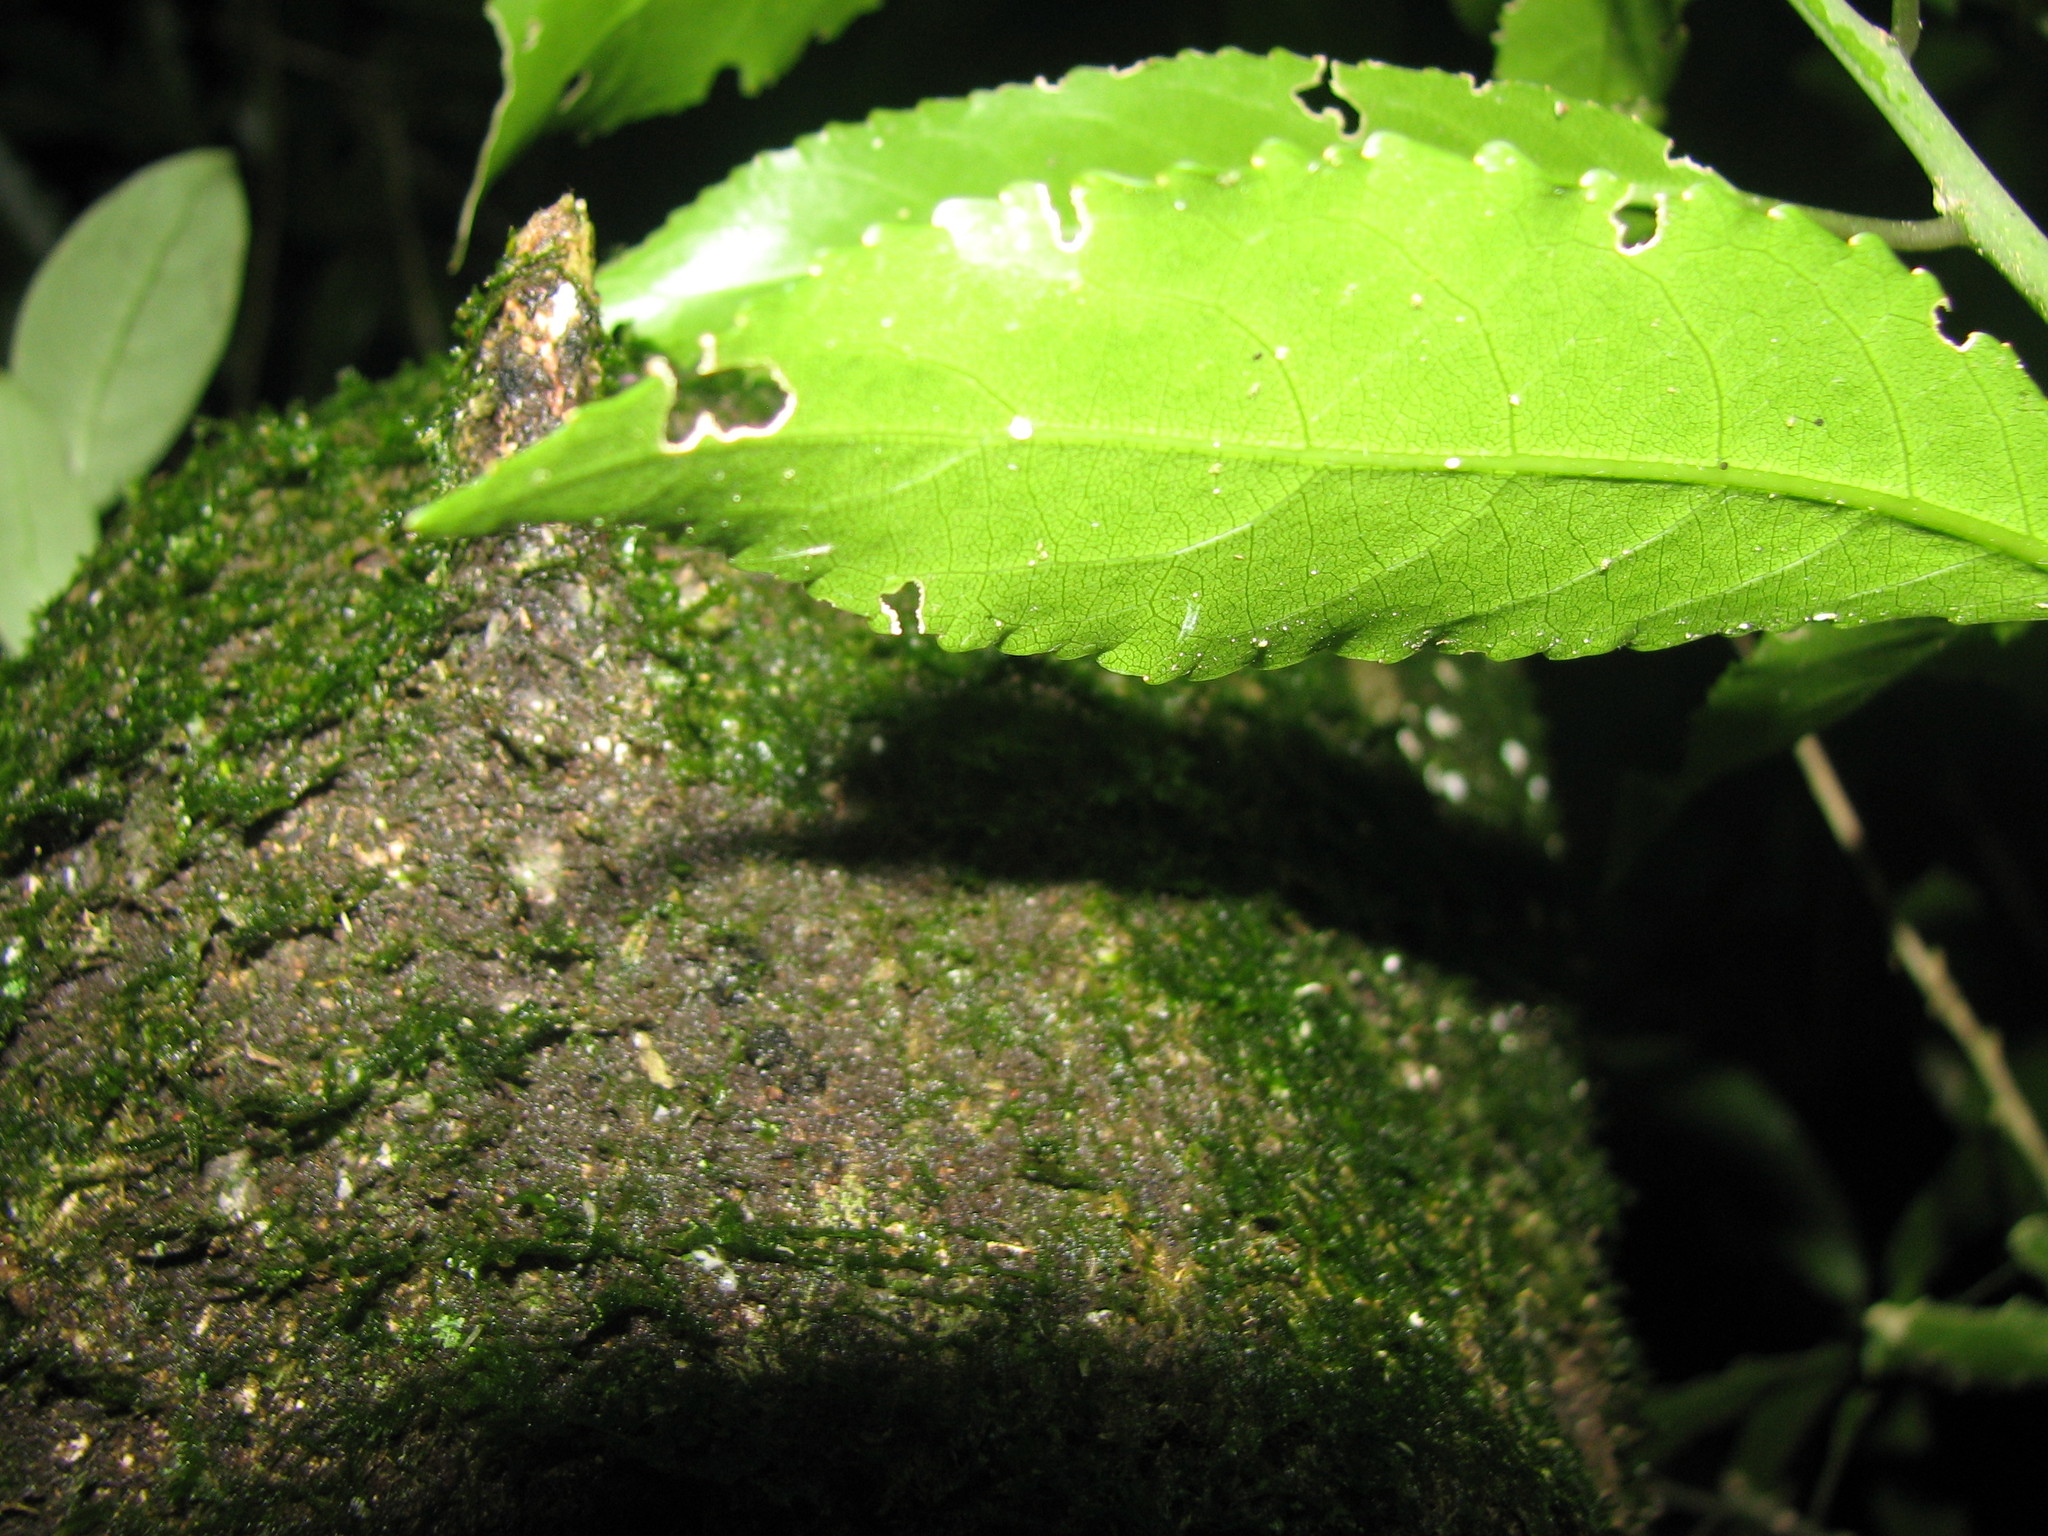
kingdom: Plantae
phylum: Tracheophyta
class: Magnoliopsida
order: Malpighiales
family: Violaceae
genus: Melicytus
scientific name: Melicytus ramiflorus
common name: Mahoe
